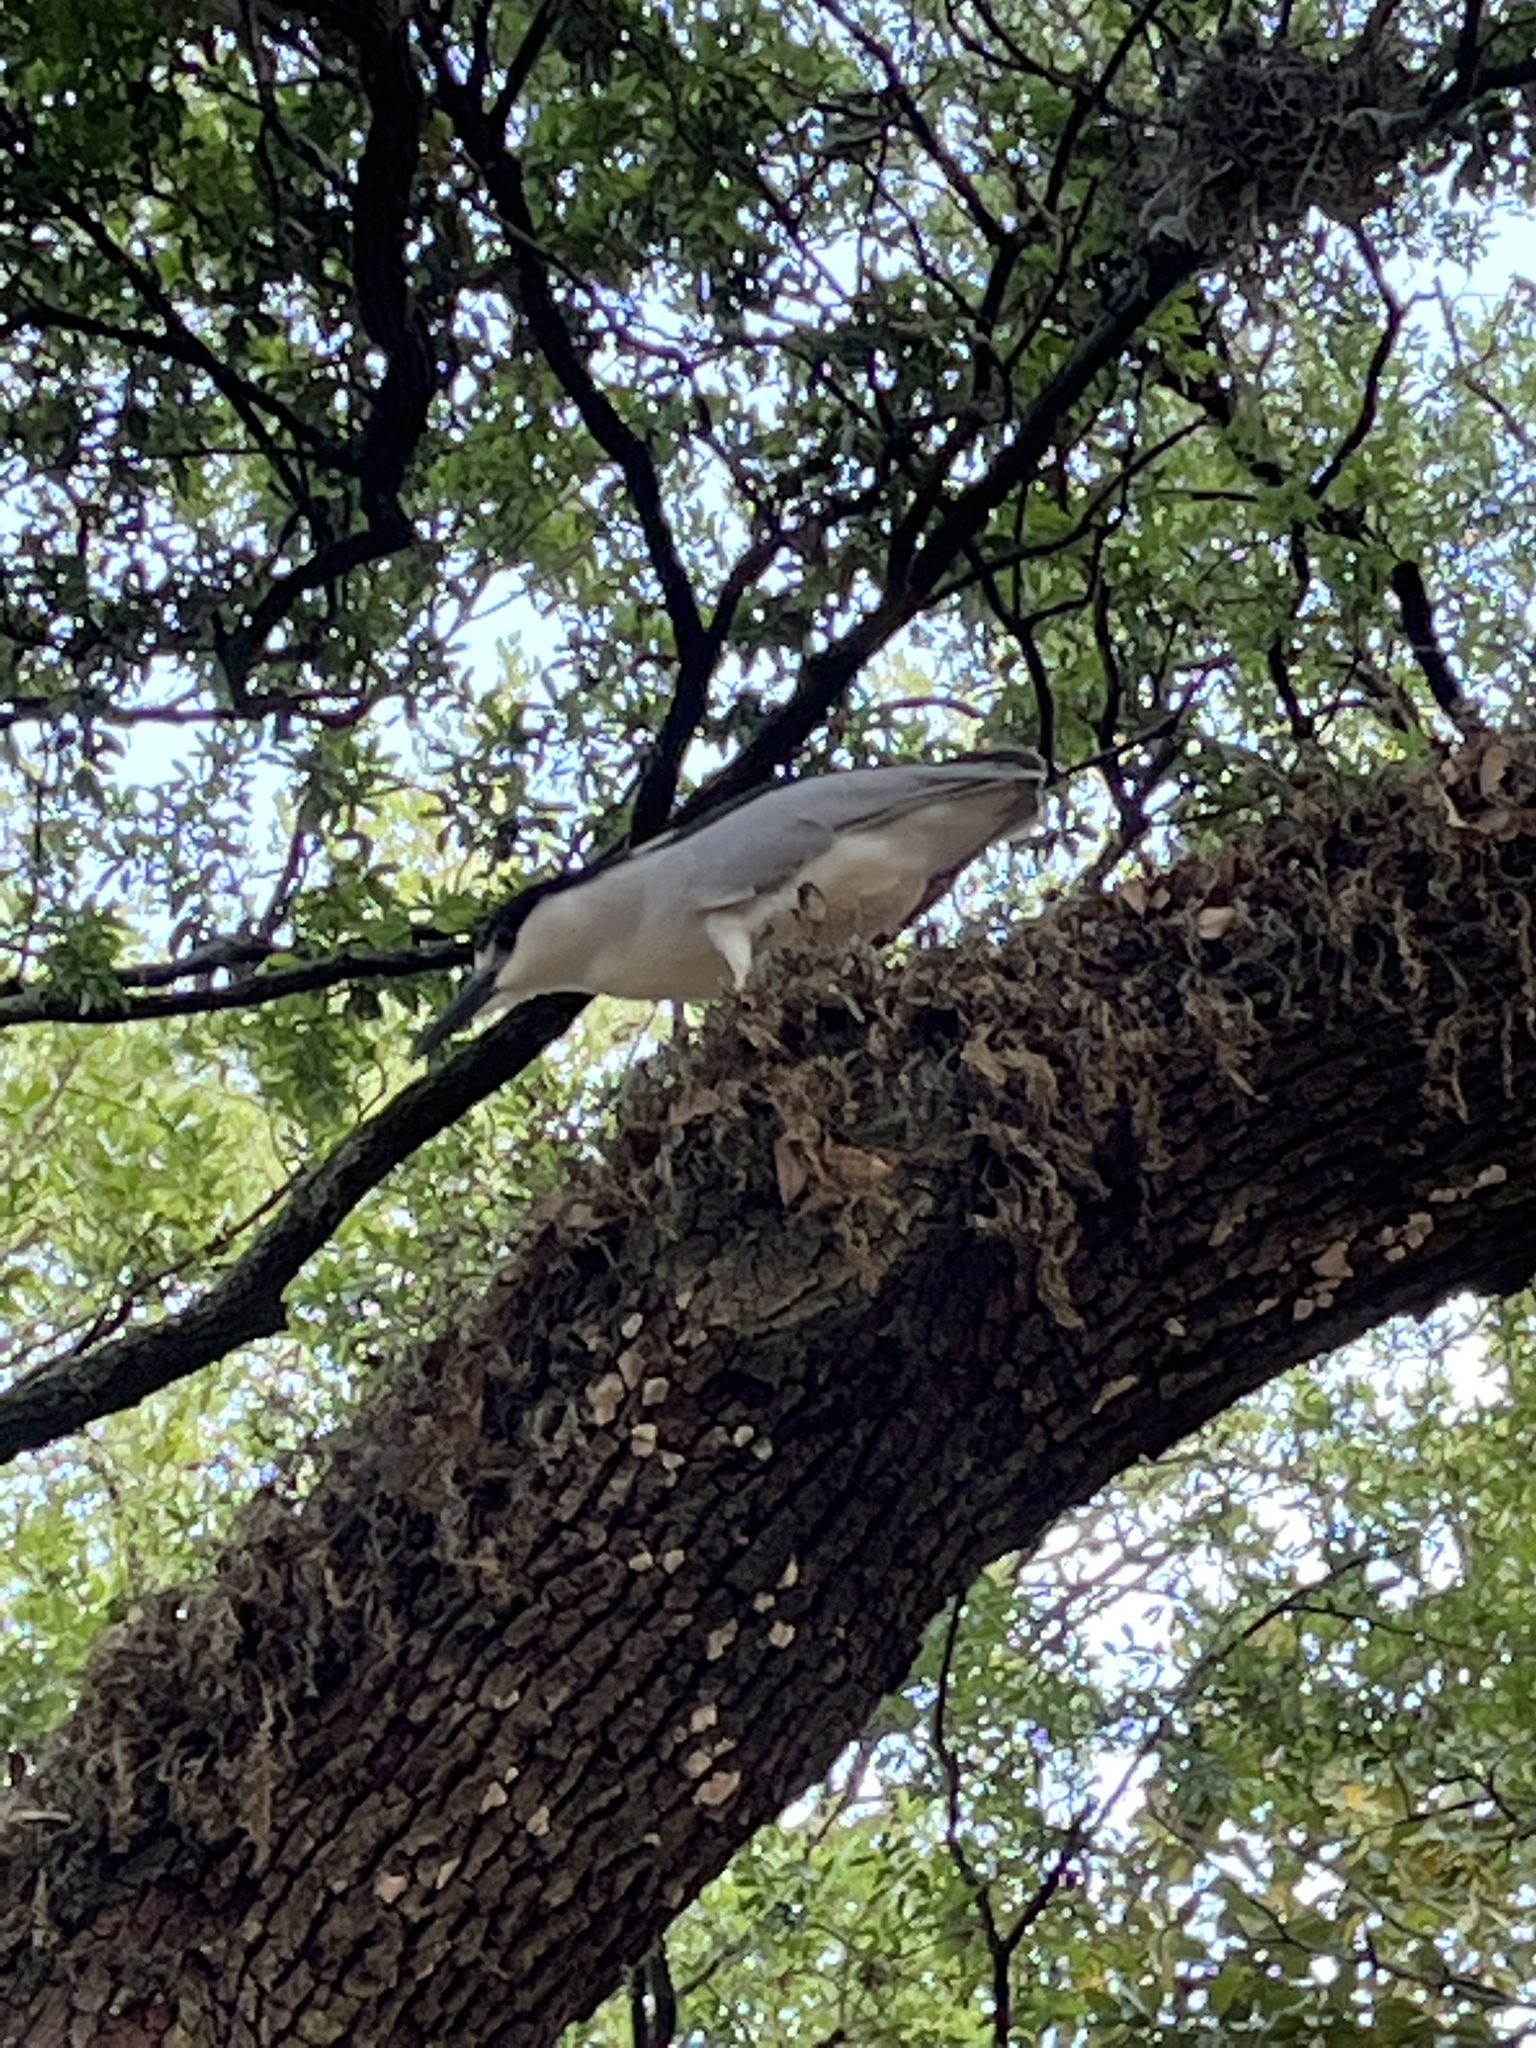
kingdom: Animalia
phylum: Chordata
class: Aves
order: Pelecaniformes
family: Ardeidae
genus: Nycticorax
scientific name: Nycticorax nycticorax
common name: Black-crowned night heron
